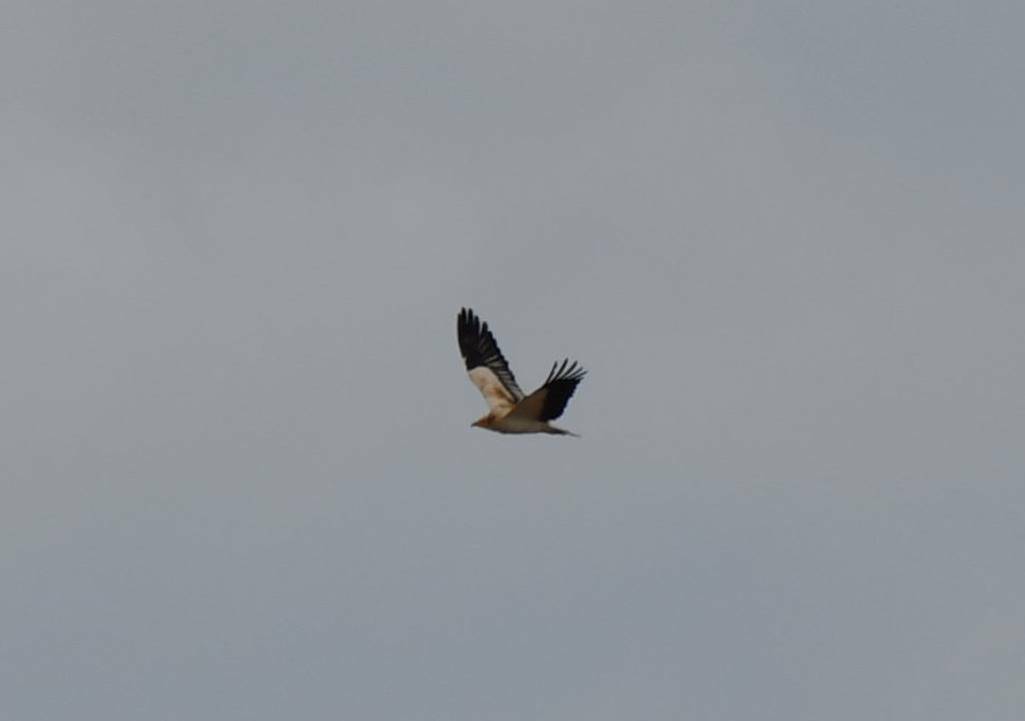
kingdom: Animalia
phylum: Chordata
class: Aves
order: Accipitriformes
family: Accipitridae
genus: Neophron
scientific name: Neophron percnopterus
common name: Egyptian vulture
